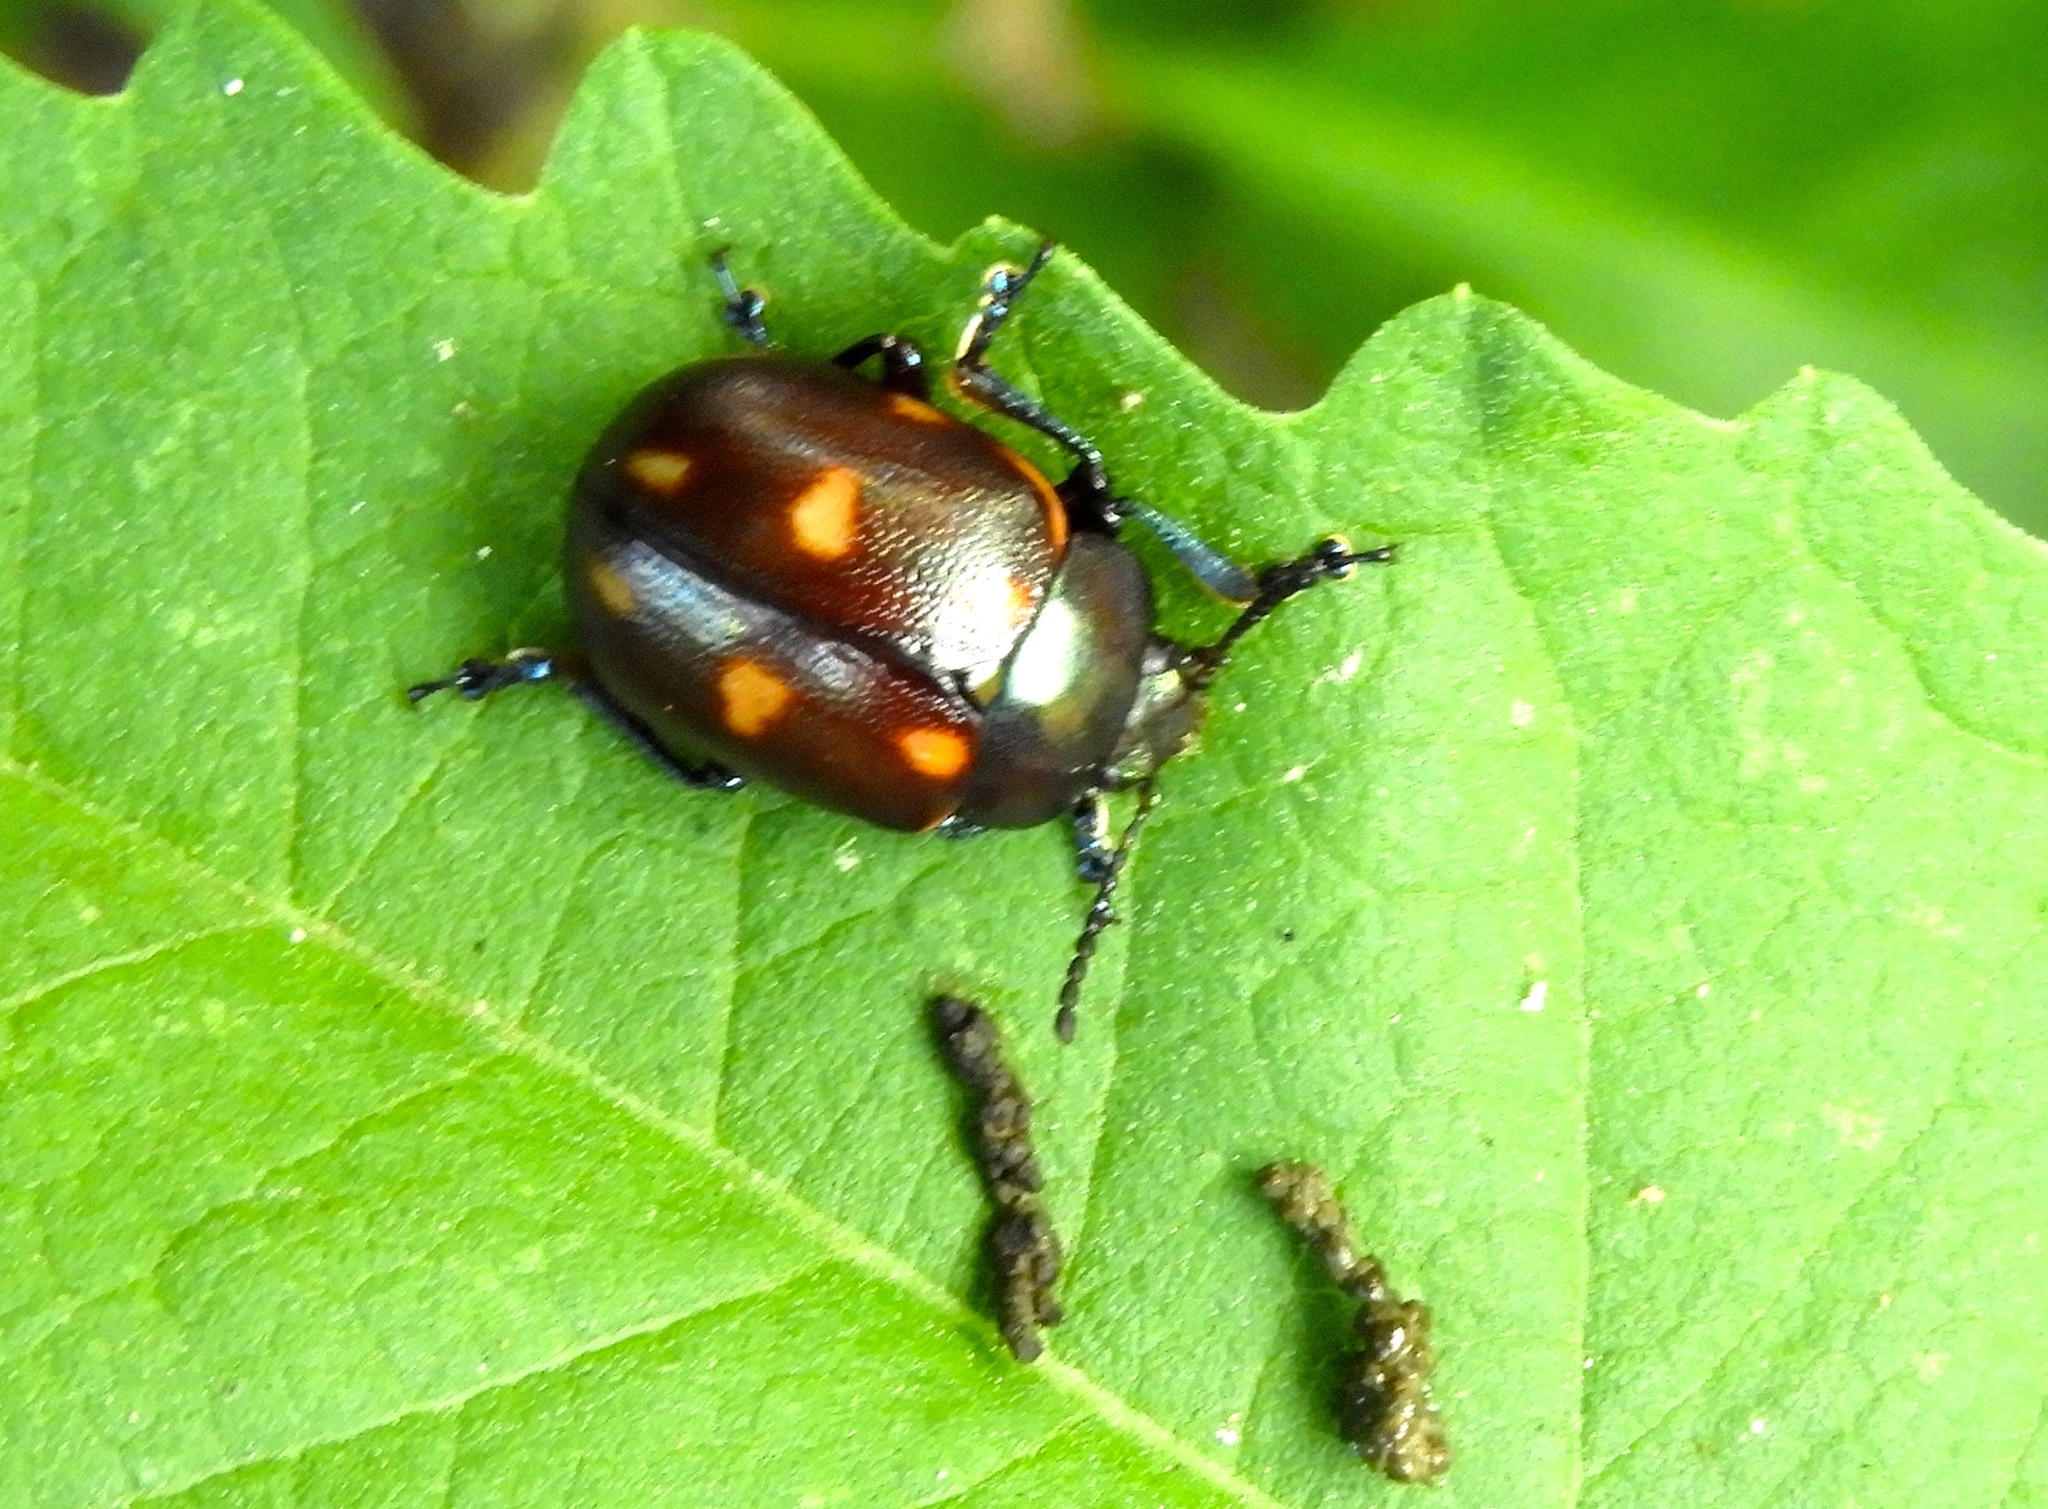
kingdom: Animalia
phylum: Arthropoda
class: Insecta
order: Coleoptera
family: Chrysomelidae
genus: Leptinotarsa
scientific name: Leptinotarsa behrensi
